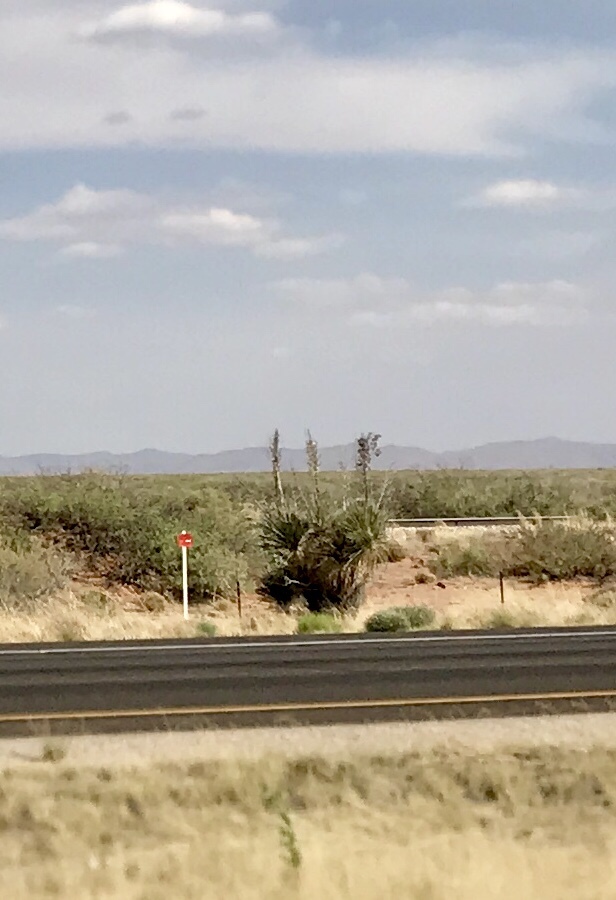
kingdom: Plantae
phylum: Tracheophyta
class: Liliopsida
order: Asparagales
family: Asparagaceae
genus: Yucca
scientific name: Yucca elata
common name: Palmella
